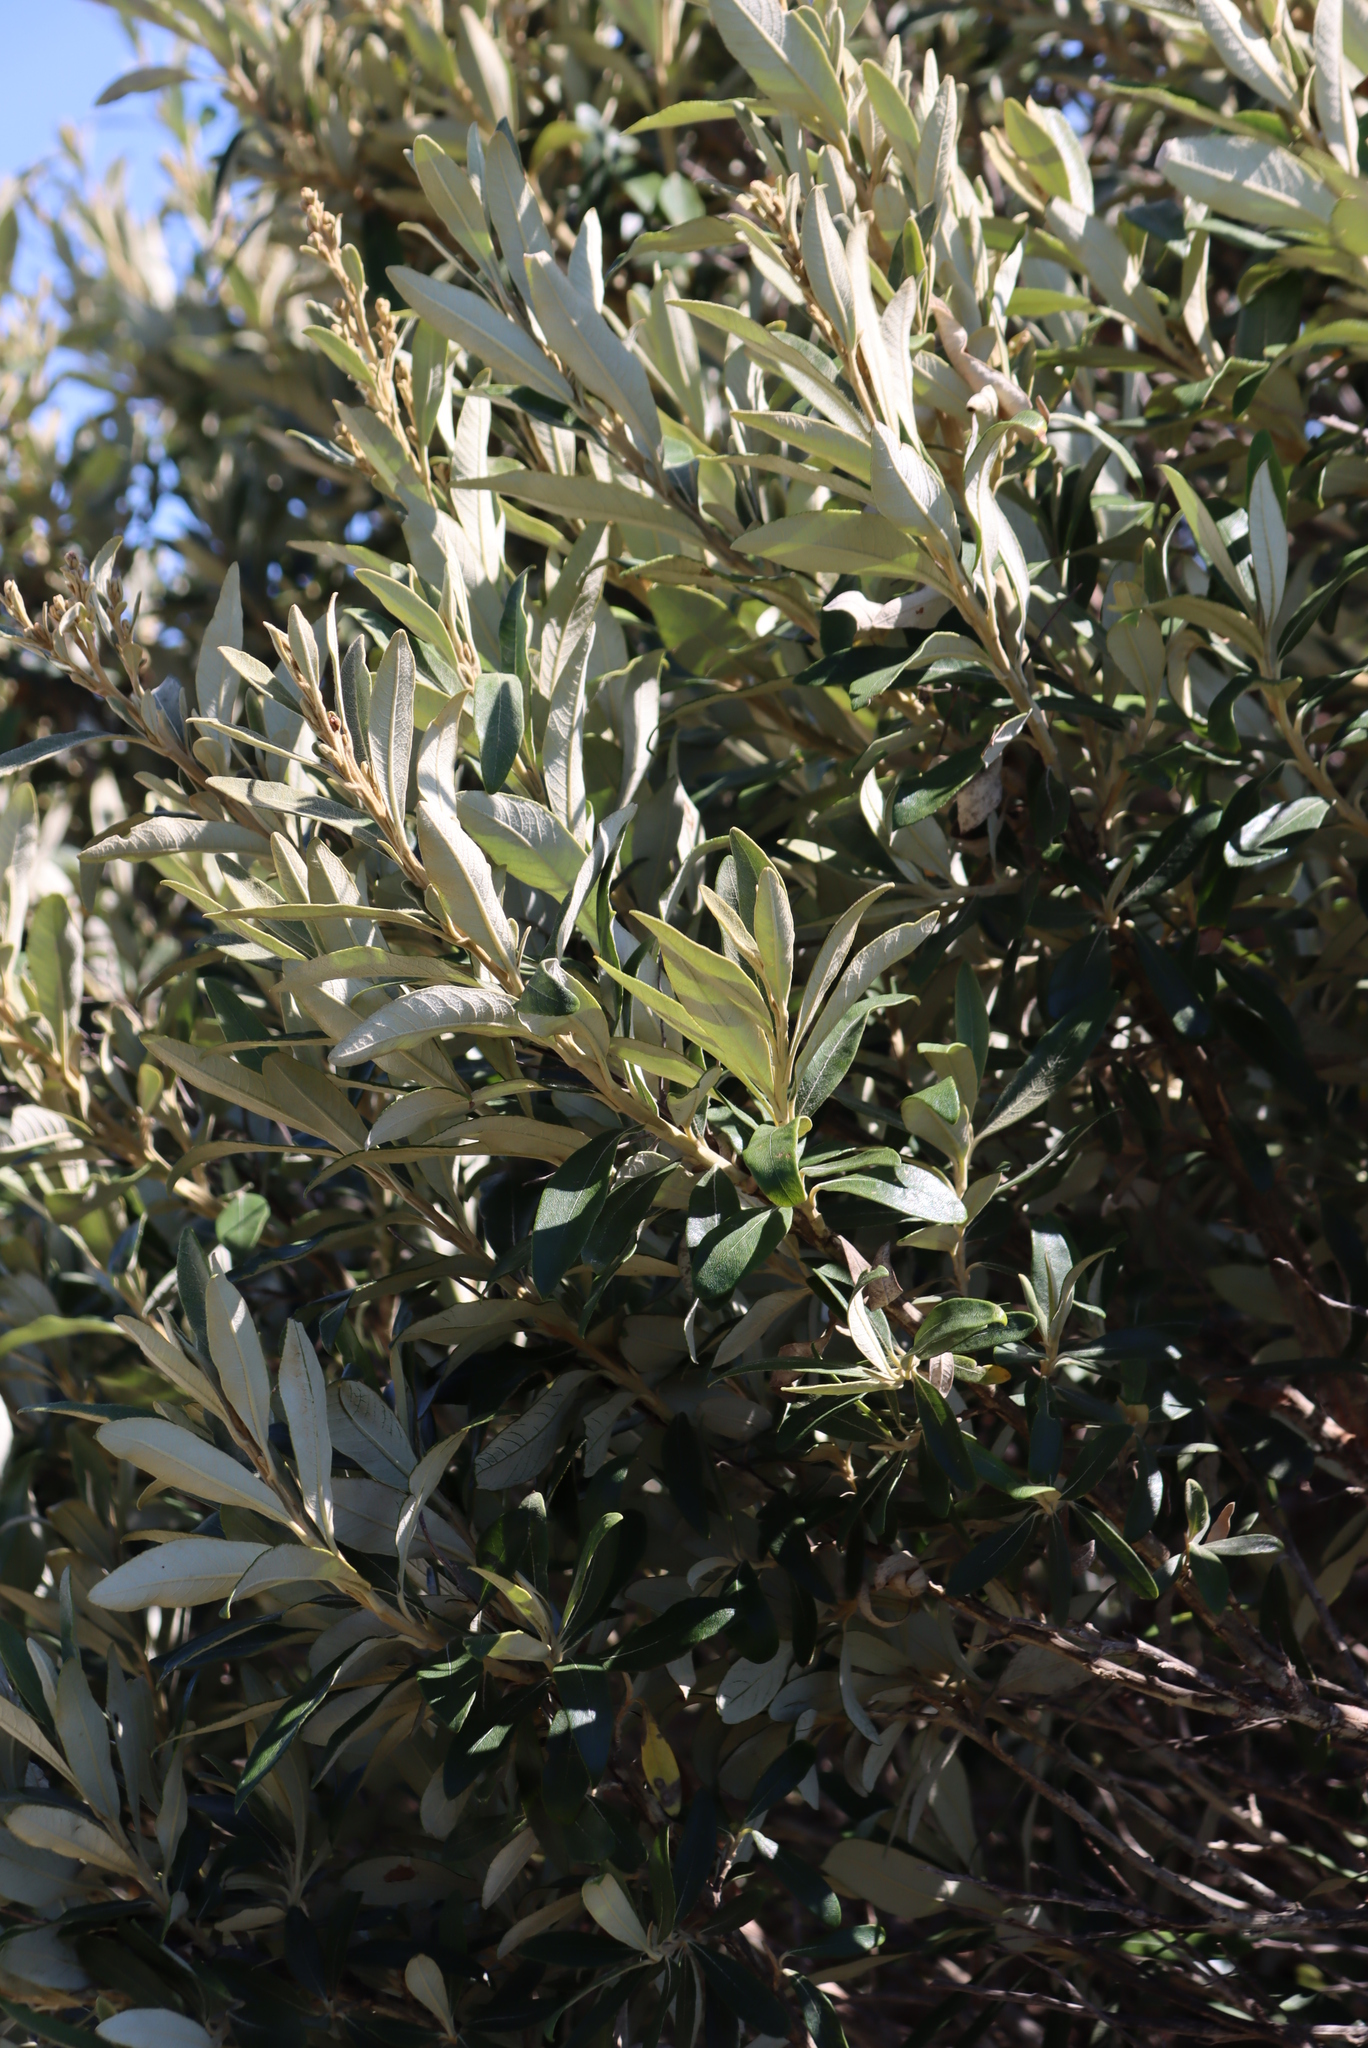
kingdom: Plantae
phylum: Tracheophyta
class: Magnoliopsida
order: Asterales
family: Asteraceae
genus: Tarchonanthus
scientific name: Tarchonanthus littoralis
